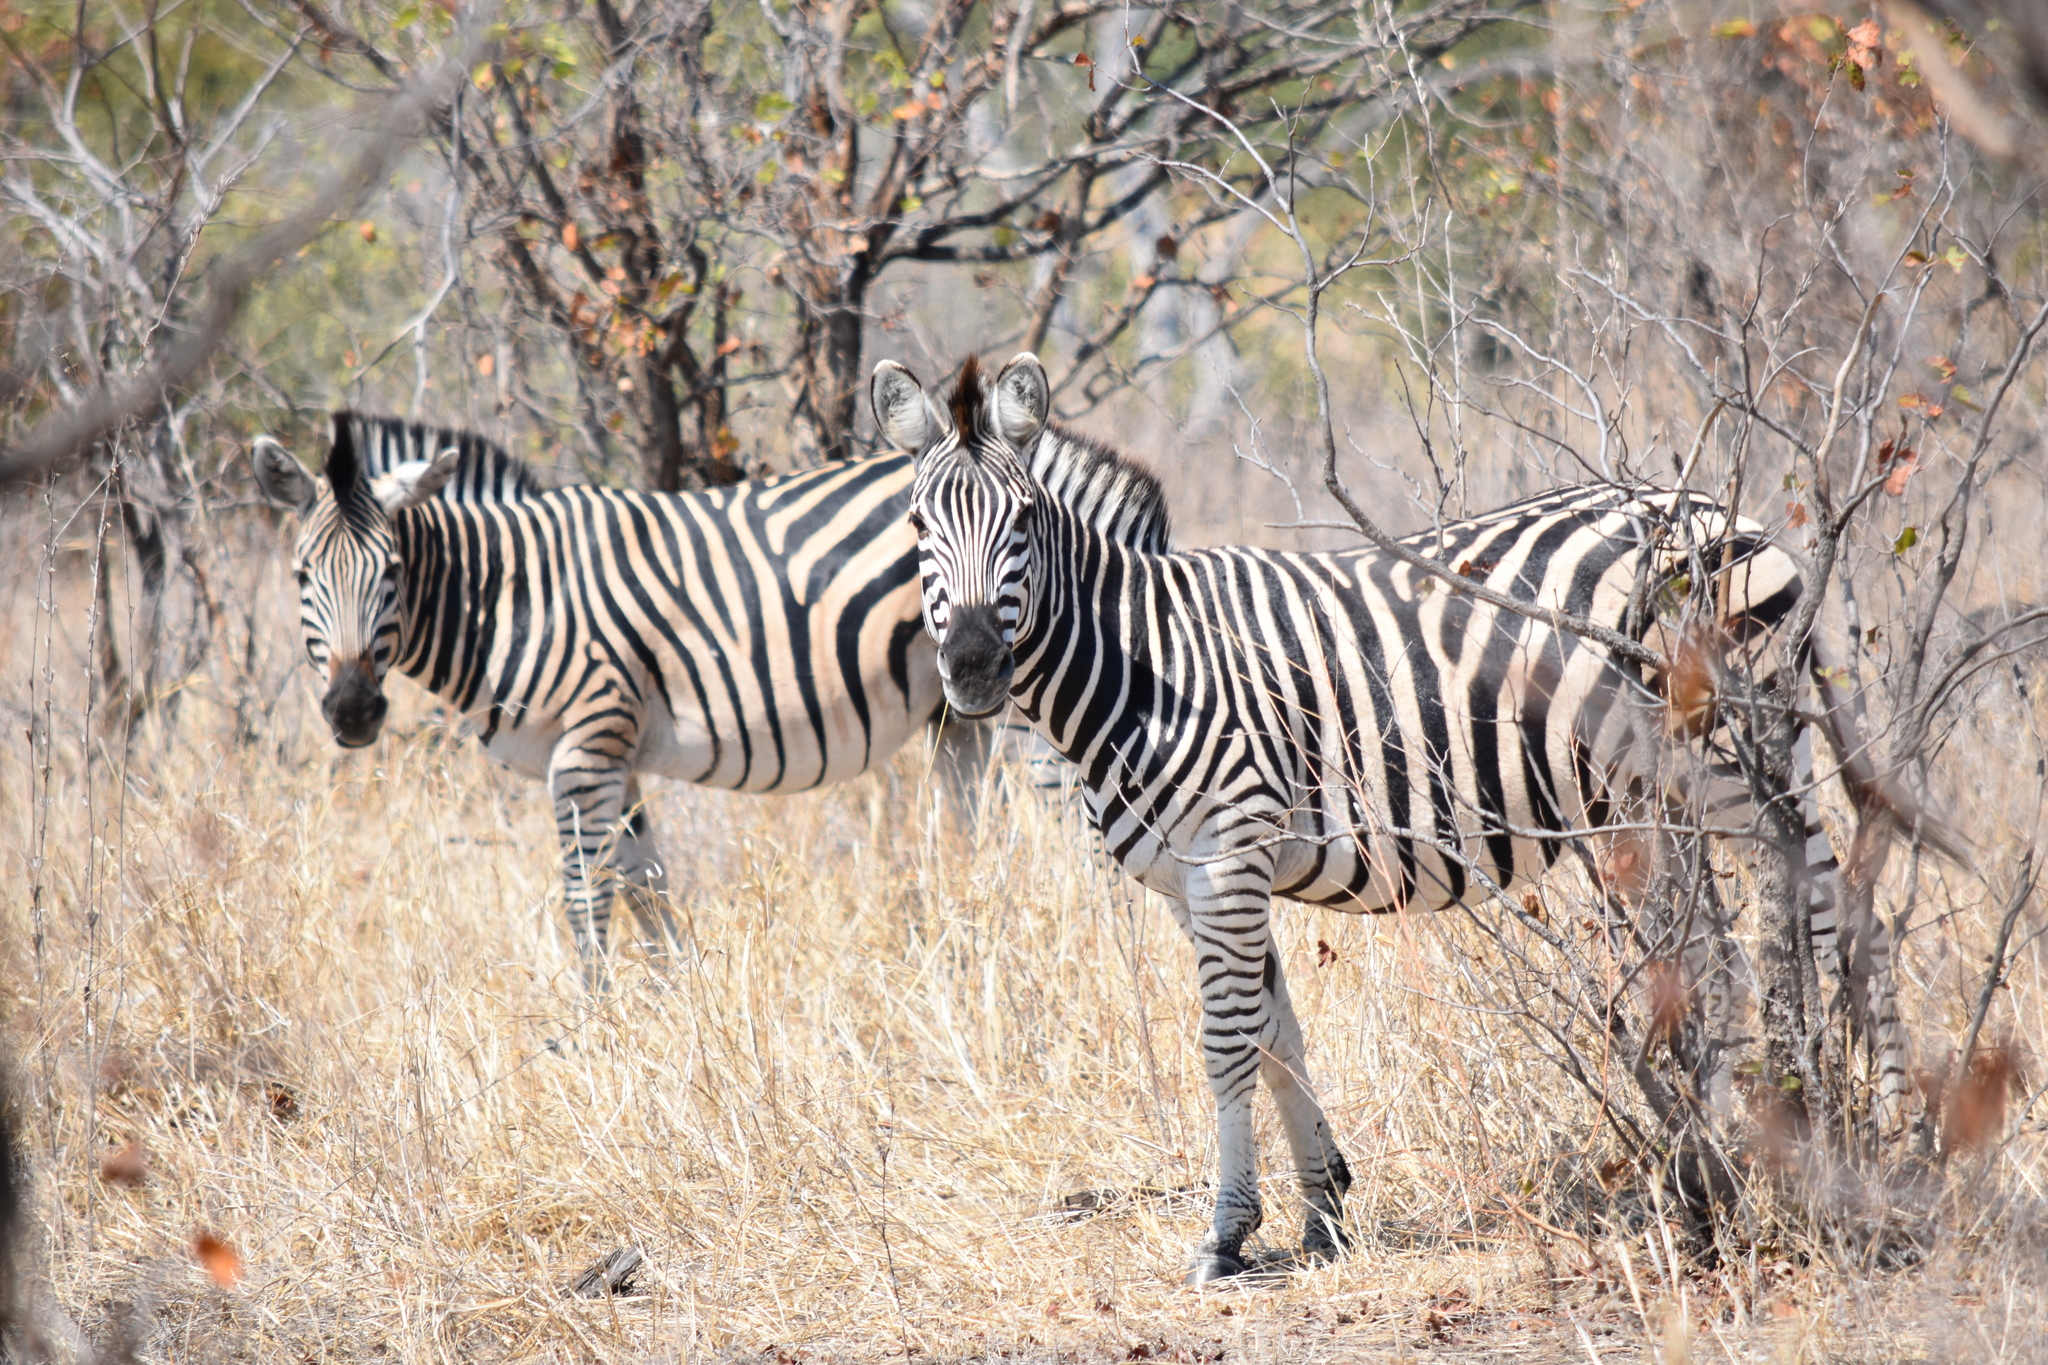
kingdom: Animalia
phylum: Chordata
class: Mammalia
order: Perissodactyla
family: Equidae
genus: Equus
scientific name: Equus quagga
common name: Plains zebra
